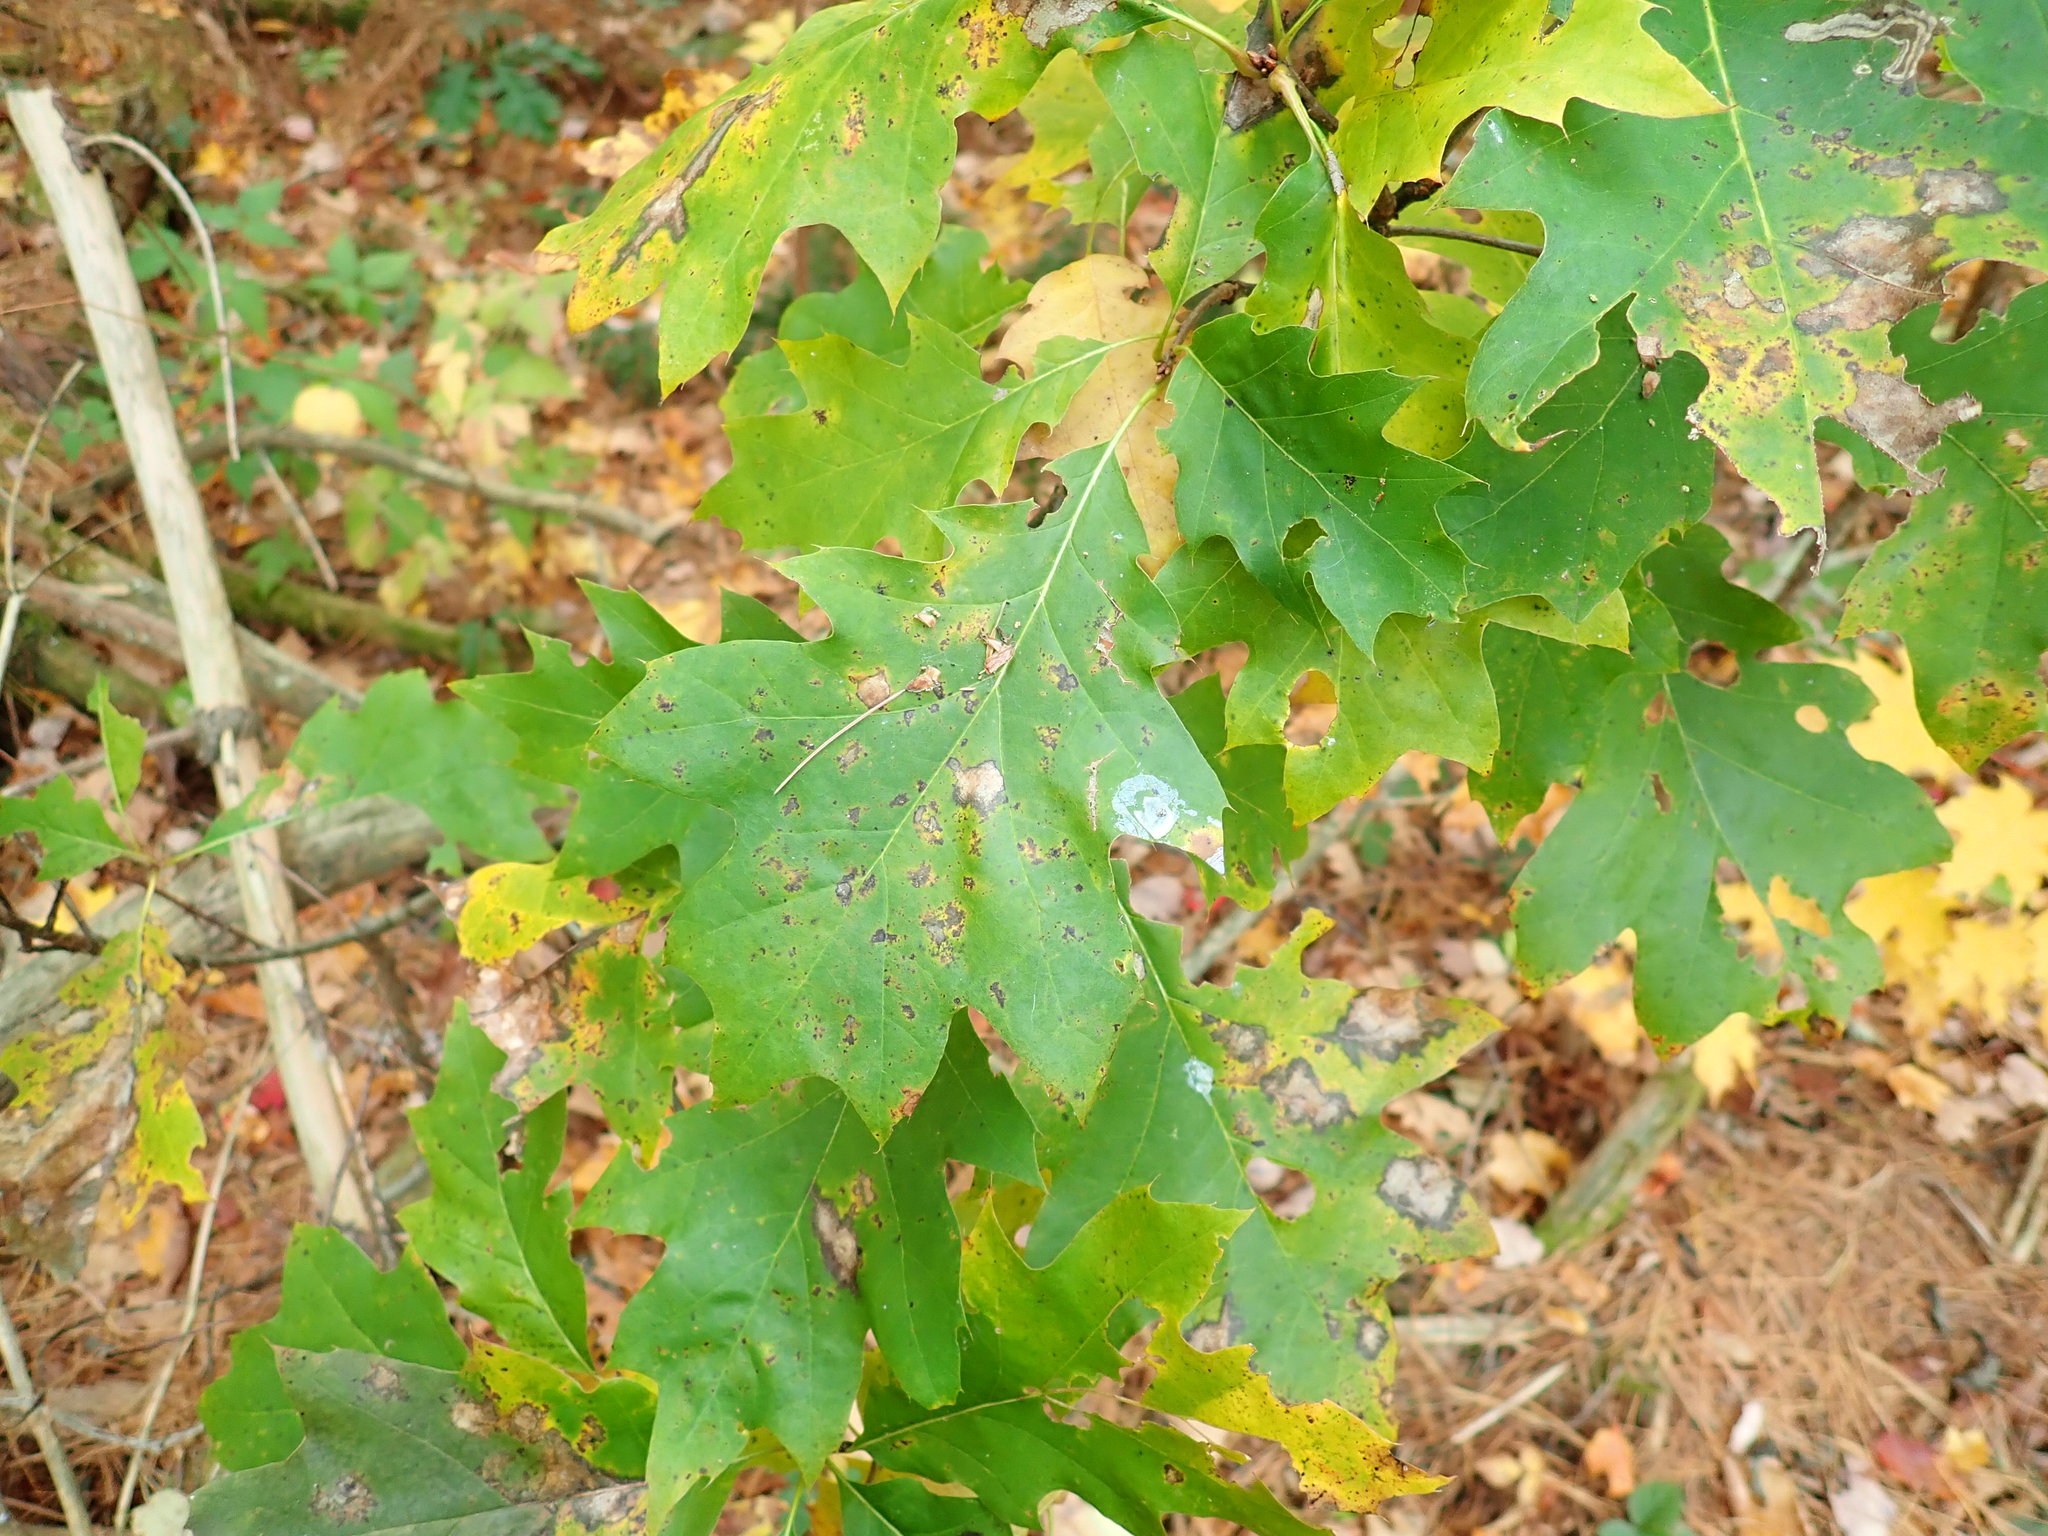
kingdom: Plantae
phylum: Tracheophyta
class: Magnoliopsida
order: Fagales
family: Fagaceae
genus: Quercus
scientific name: Quercus rubra
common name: Red oak
